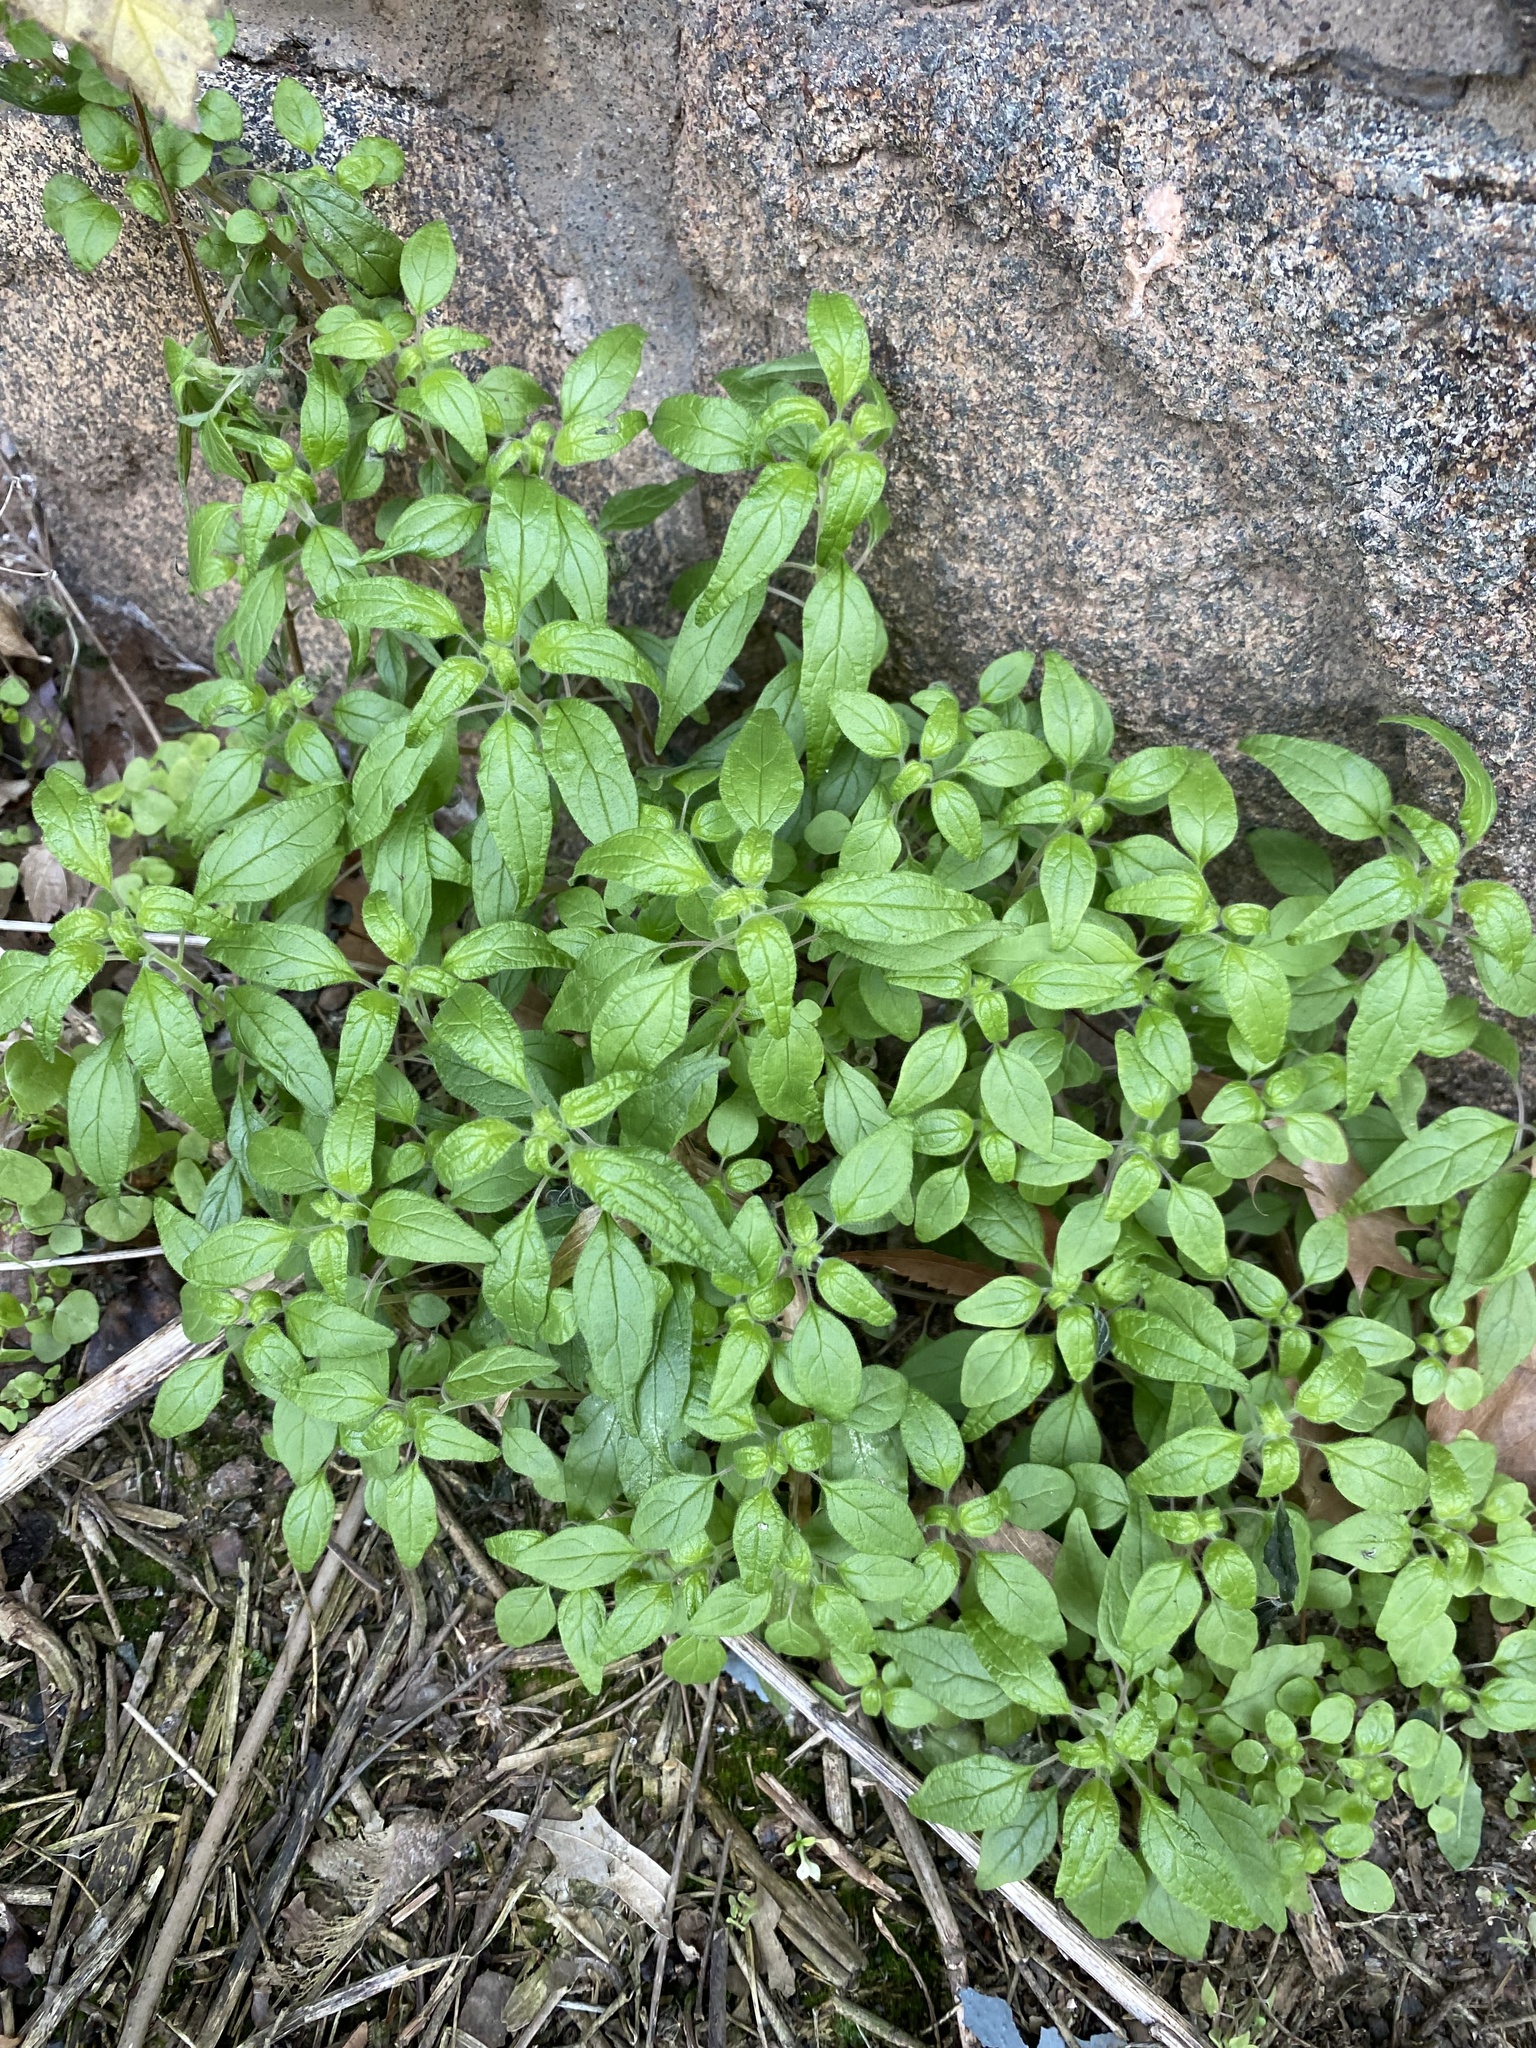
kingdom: Plantae
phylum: Tracheophyta
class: Magnoliopsida
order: Rosales
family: Urticaceae
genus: Parietaria
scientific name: Parietaria pensylvanica
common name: Pennsylvania pellitory
